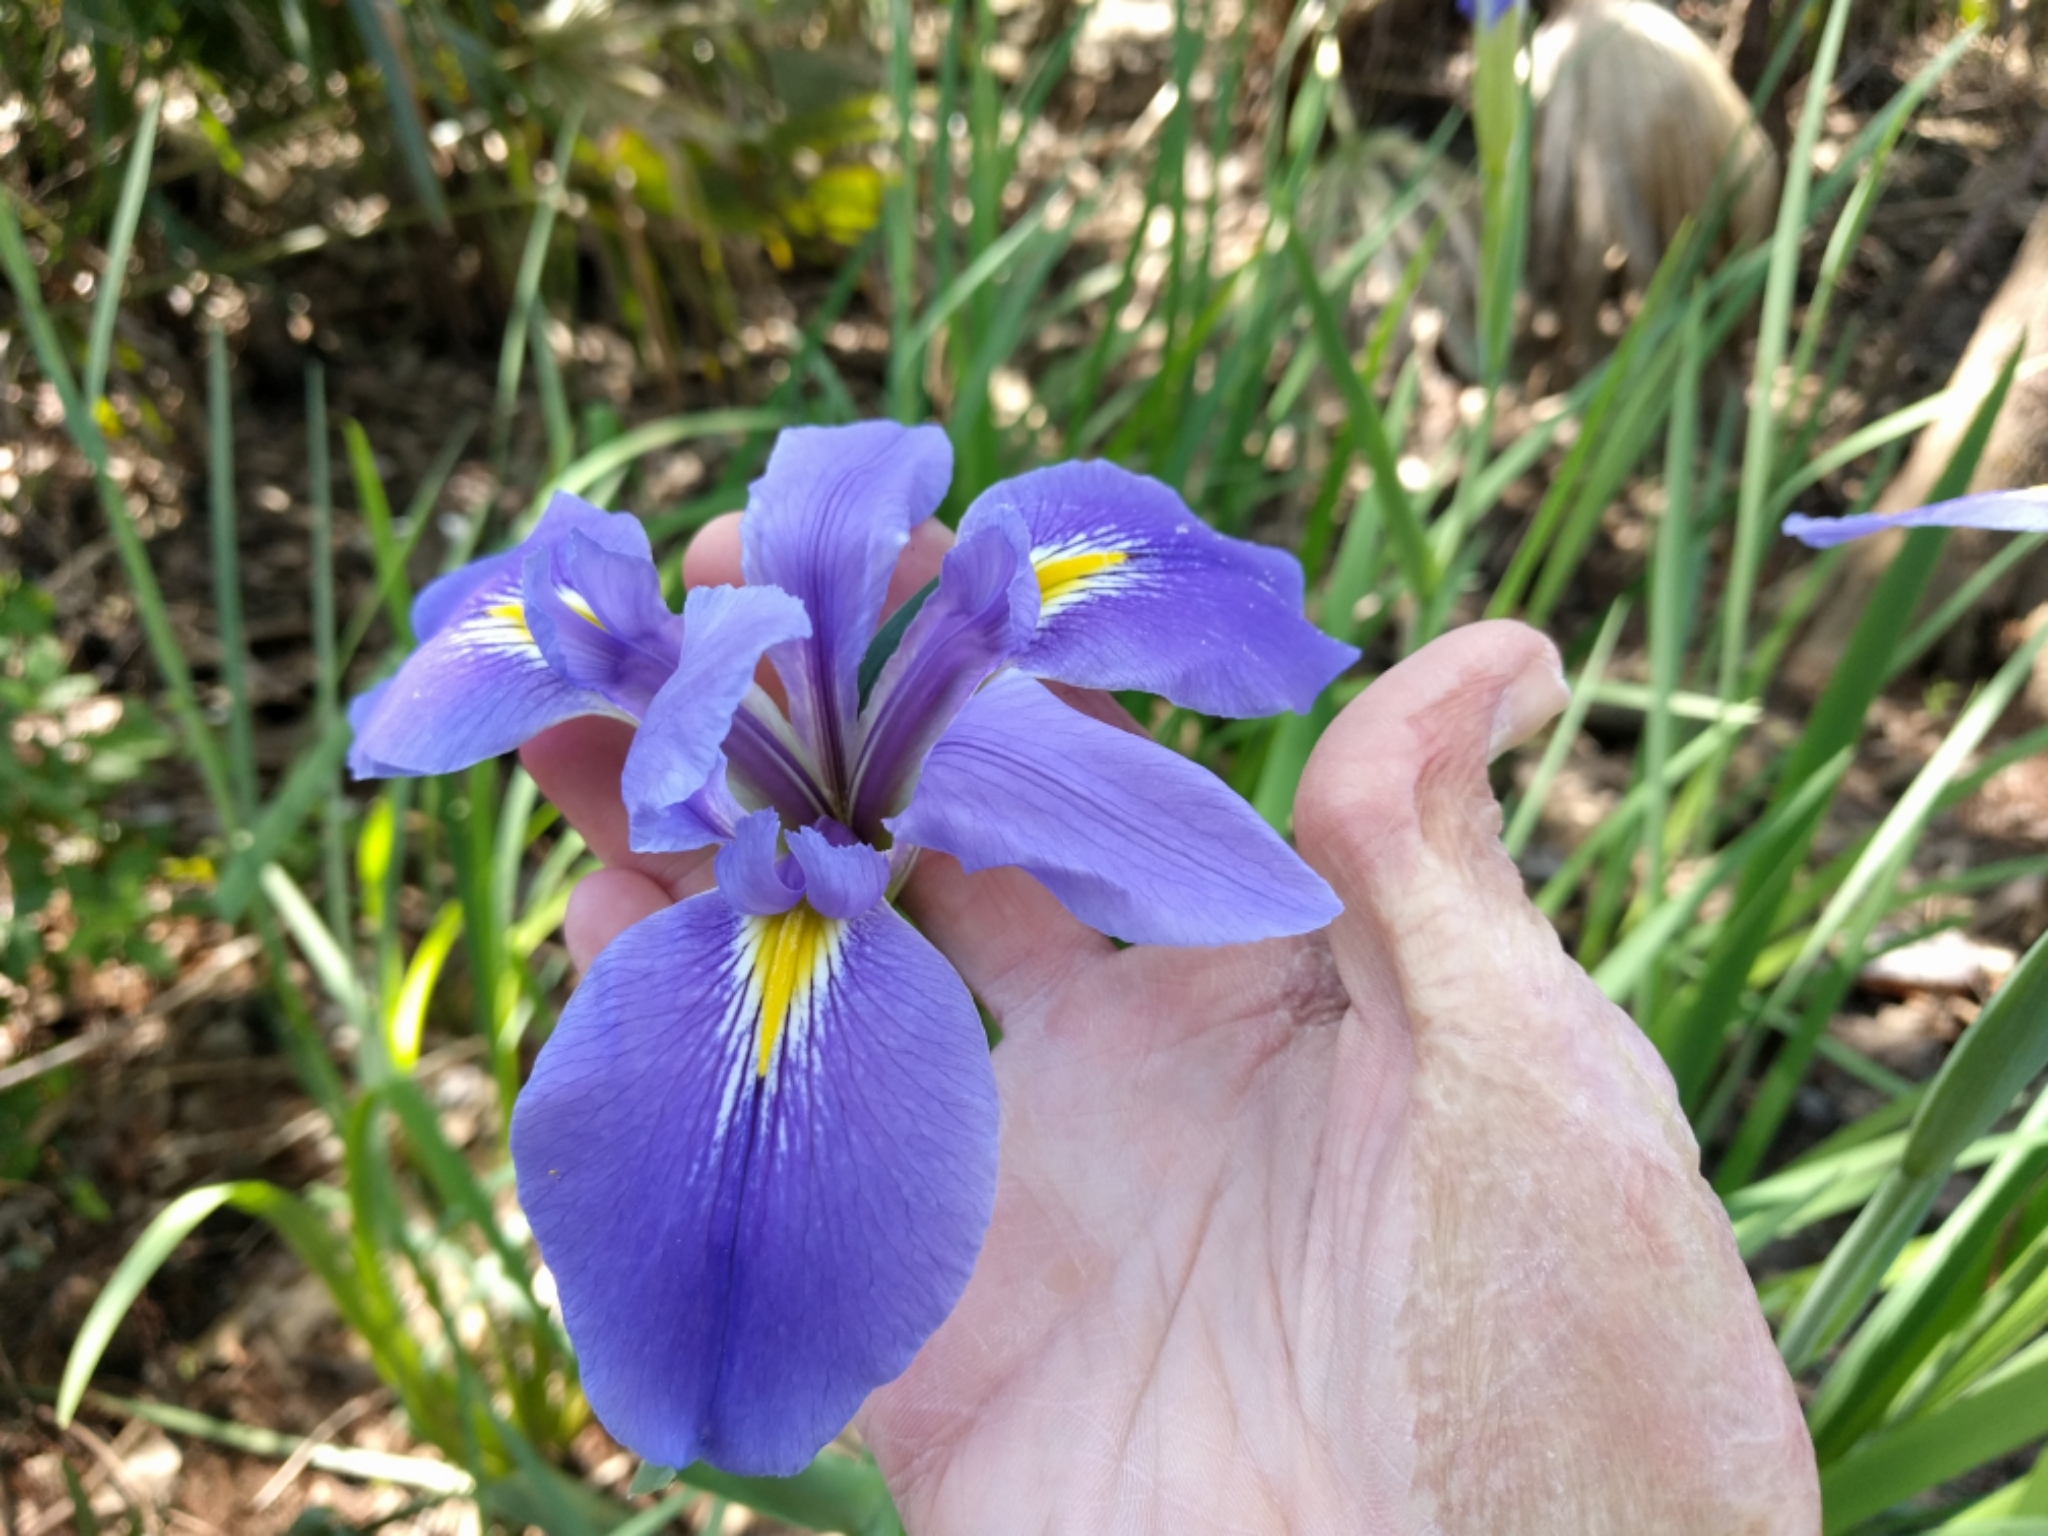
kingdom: Plantae
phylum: Tracheophyta
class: Liliopsida
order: Asparagales
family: Iridaceae
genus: Iris
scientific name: Iris giganticaerulea
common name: Giant blue iris
